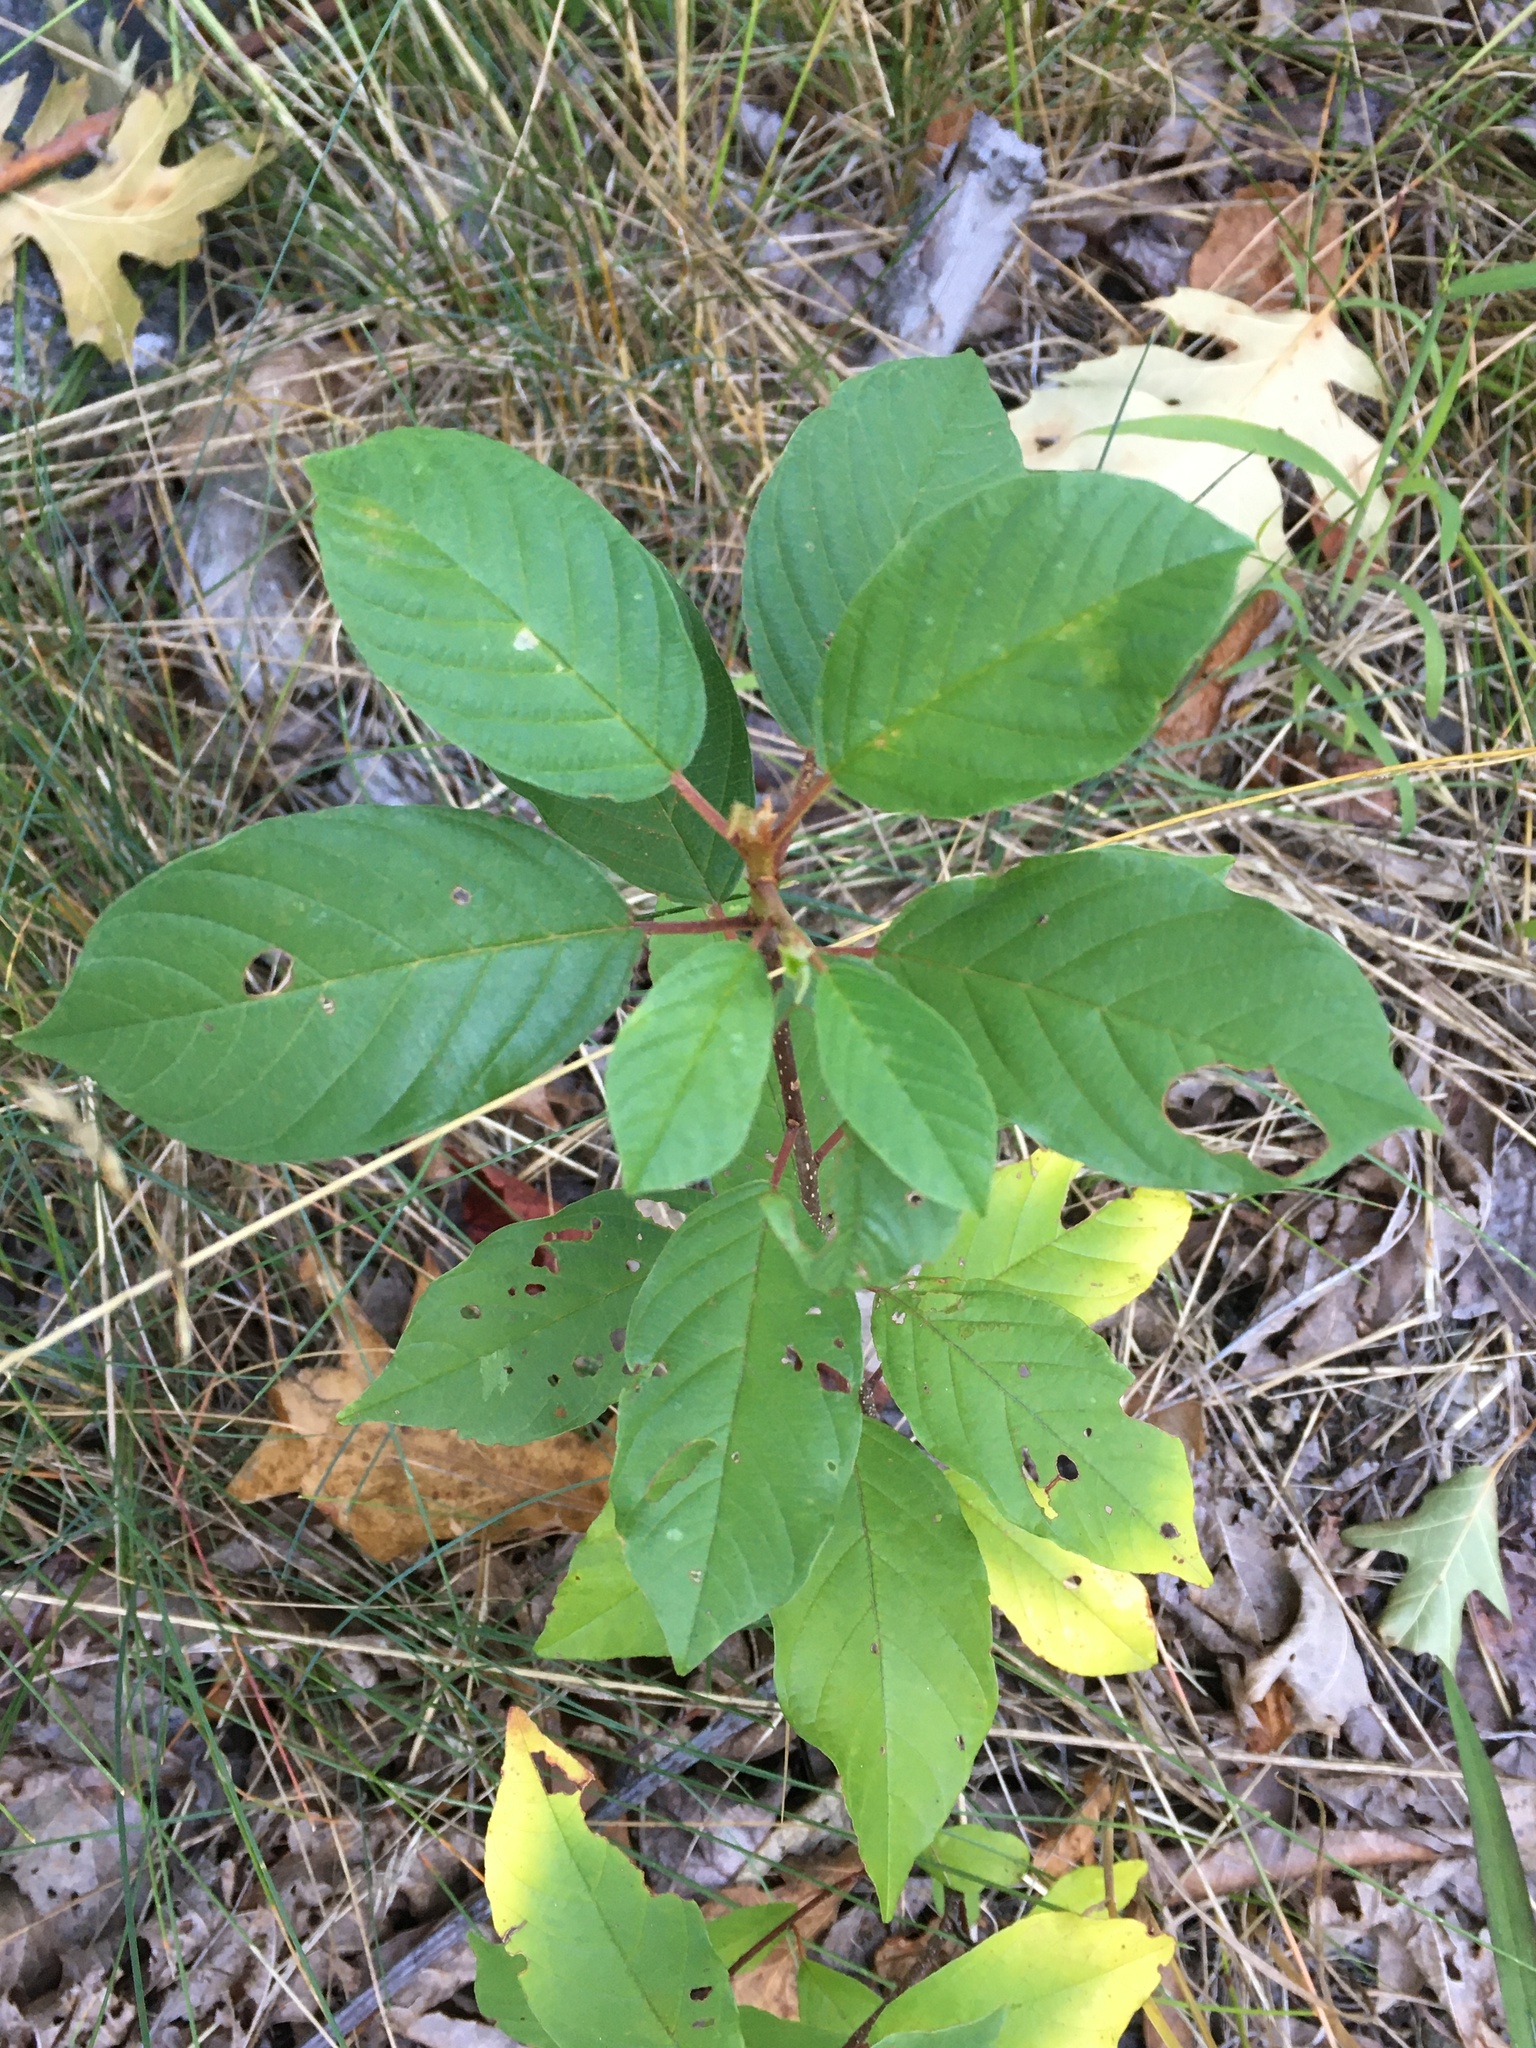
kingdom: Plantae
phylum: Tracheophyta
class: Magnoliopsida
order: Rosales
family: Rhamnaceae
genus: Frangula
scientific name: Frangula alnus
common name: Alder buckthorn
